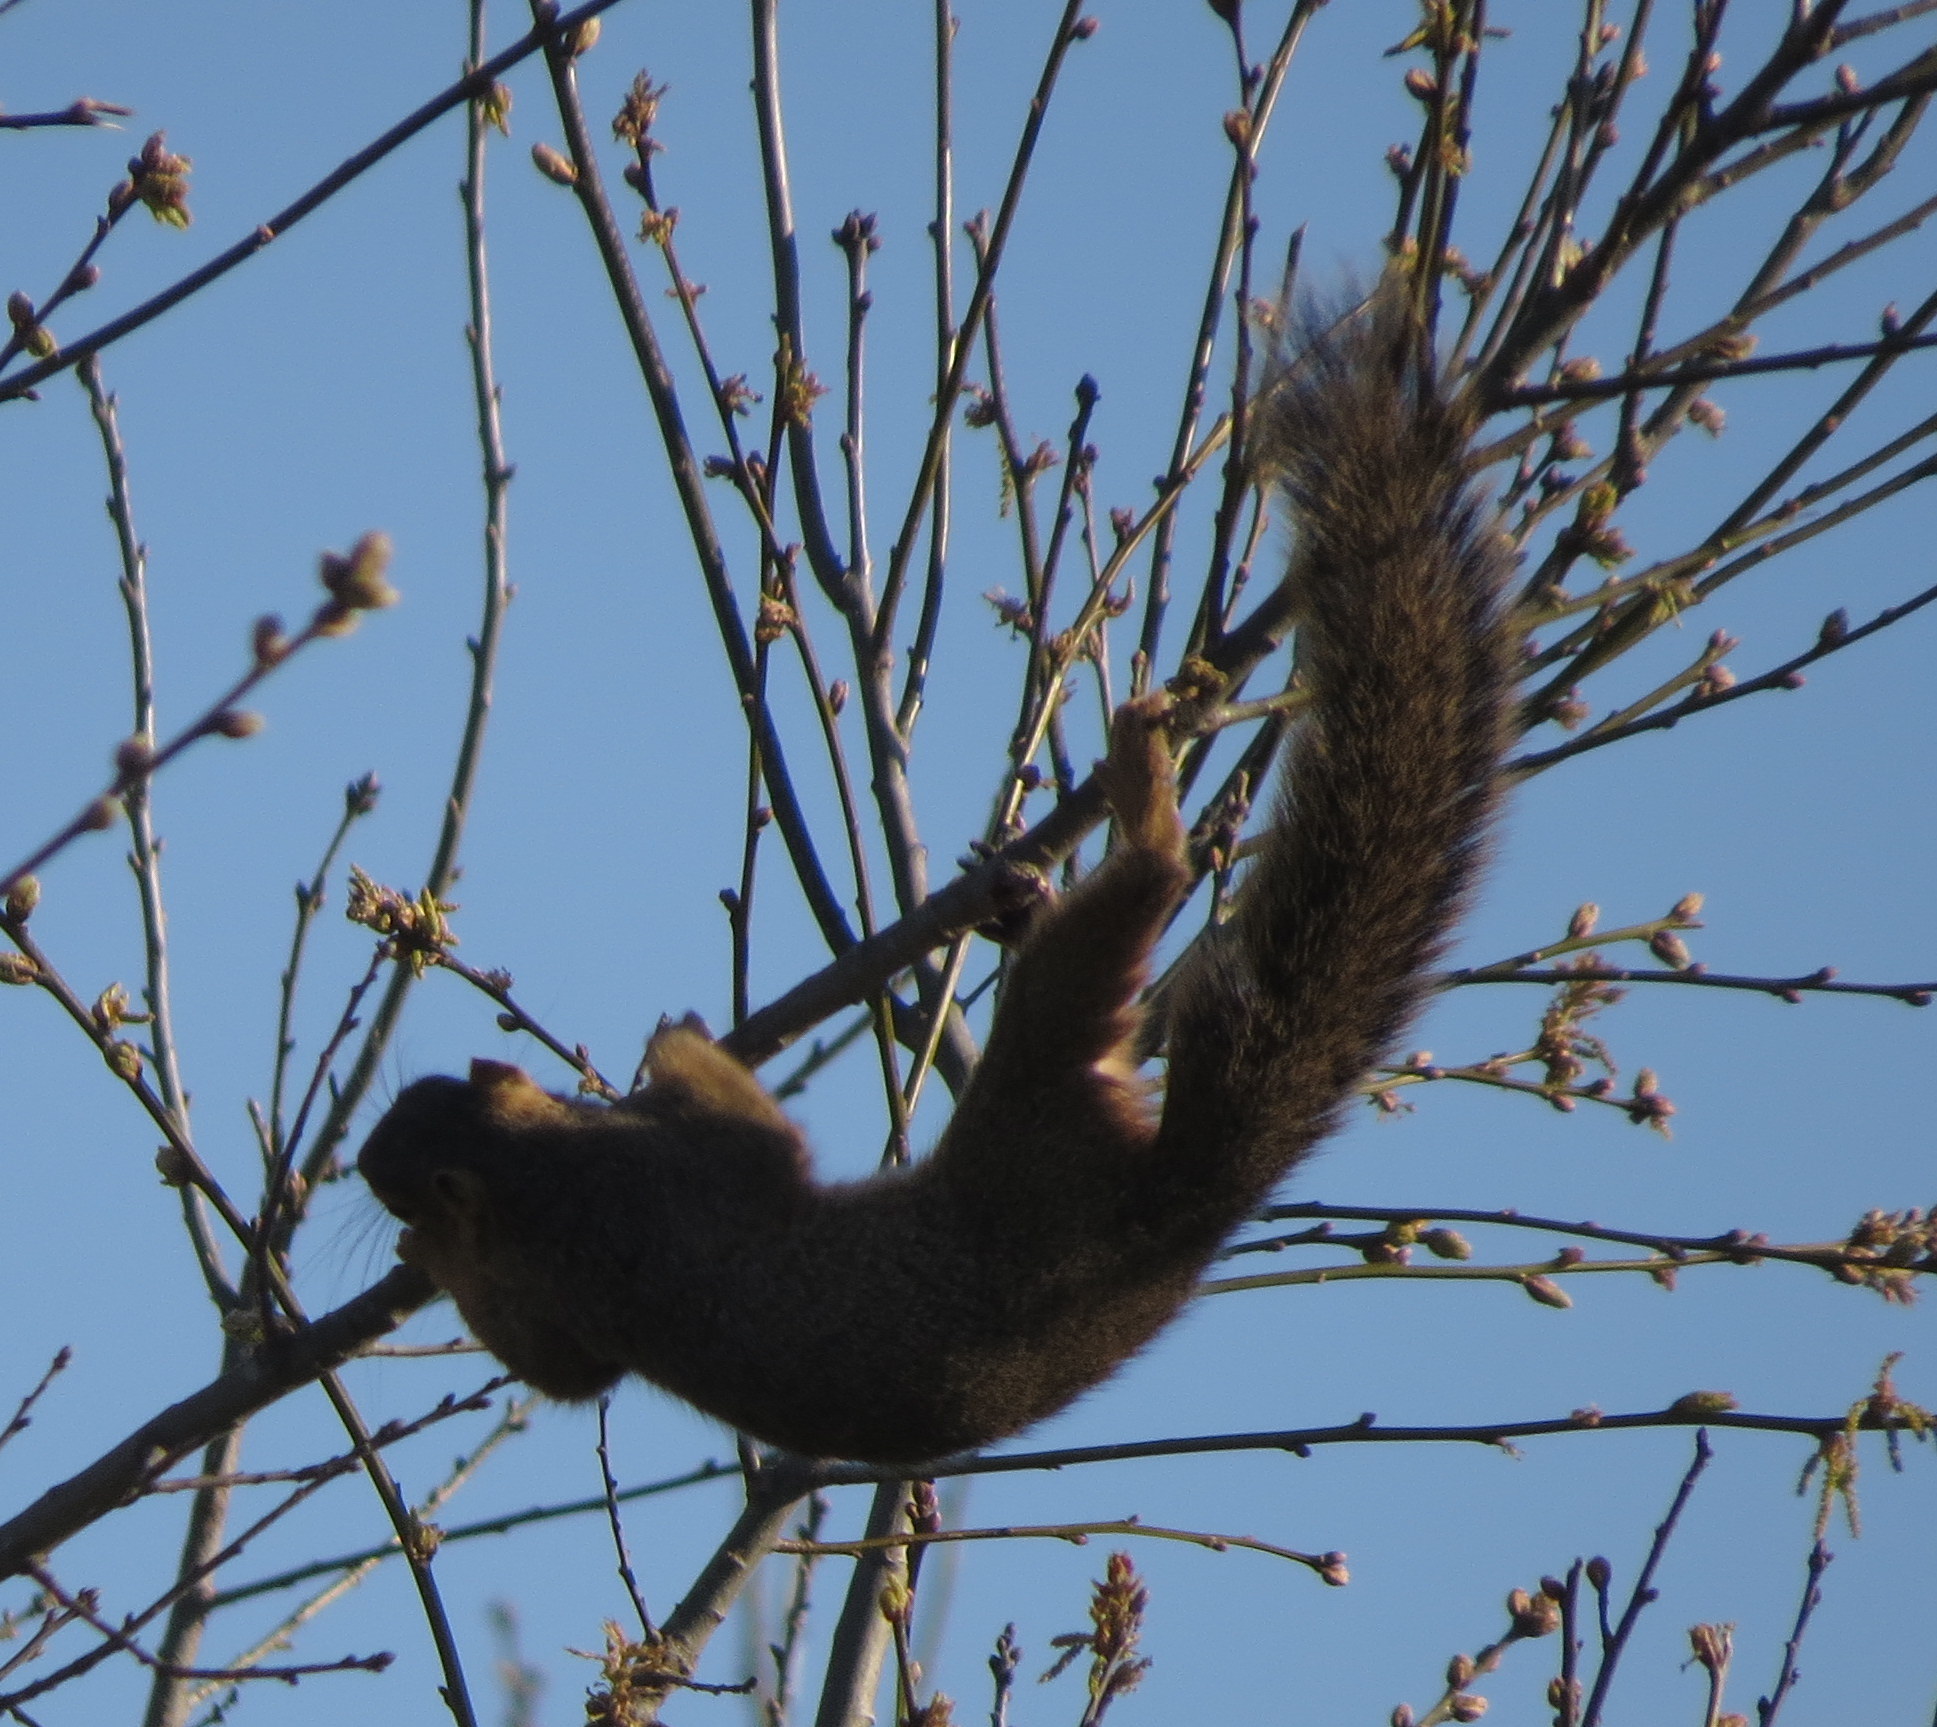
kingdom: Animalia
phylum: Chordata
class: Mammalia
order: Rodentia
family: Sciuridae
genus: Sciurus
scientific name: Sciurus niger
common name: Fox squirrel
